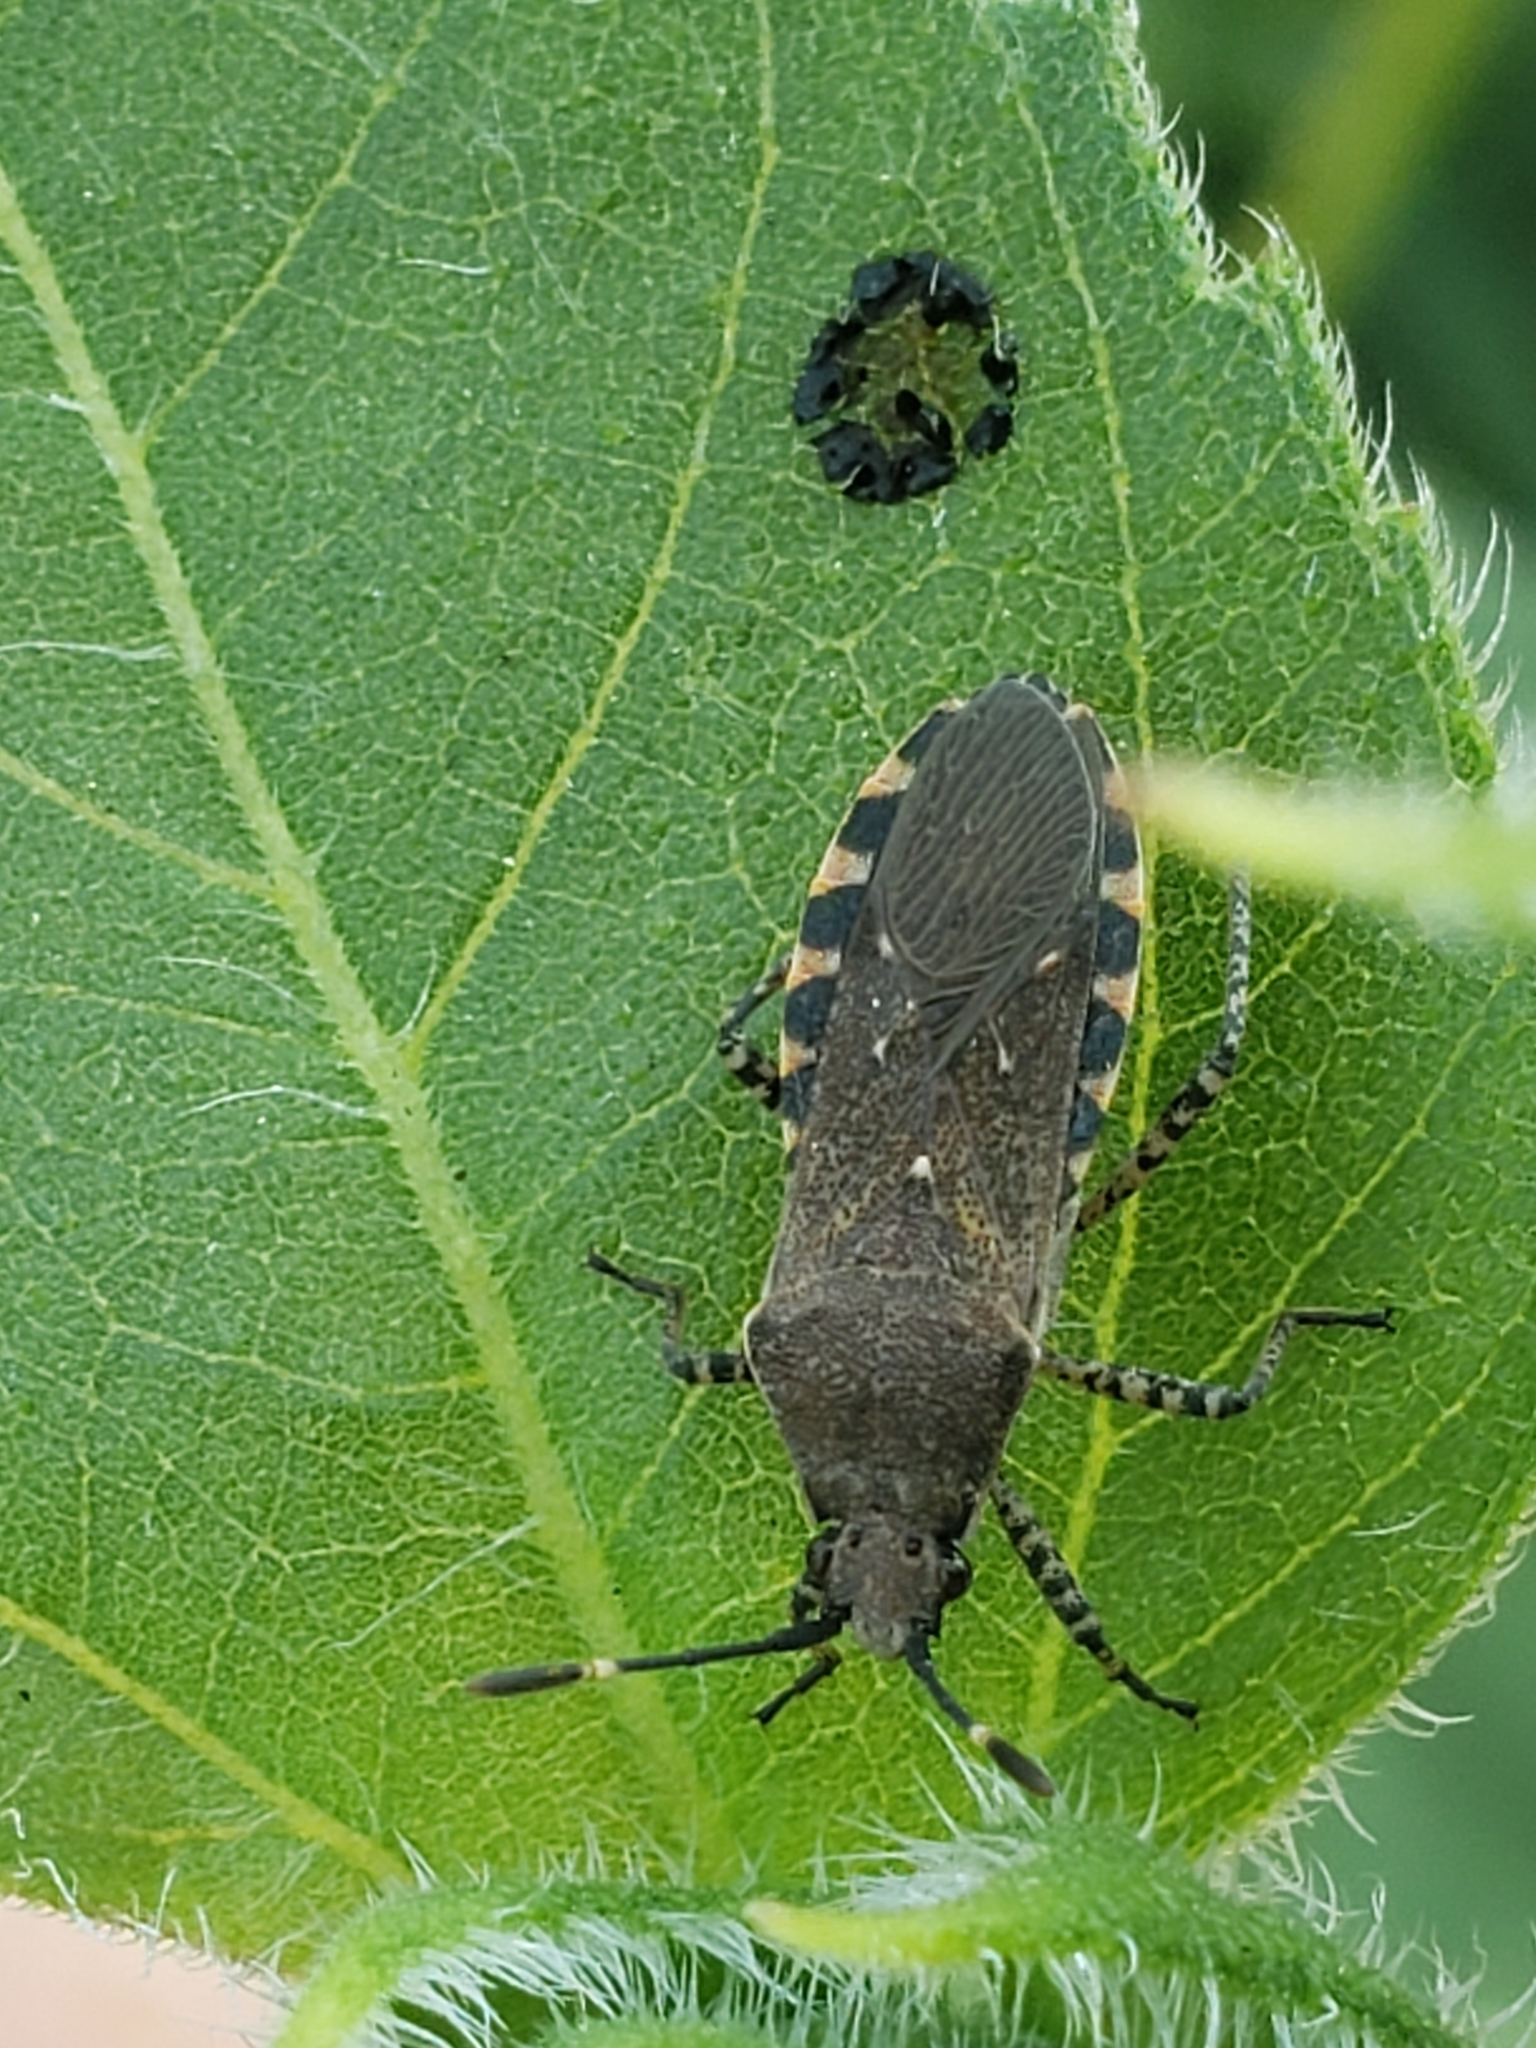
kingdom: Animalia
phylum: Arthropoda
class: Insecta
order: Hemiptera
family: Coreidae
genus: Catorhintha
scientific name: Catorhintha mendica
